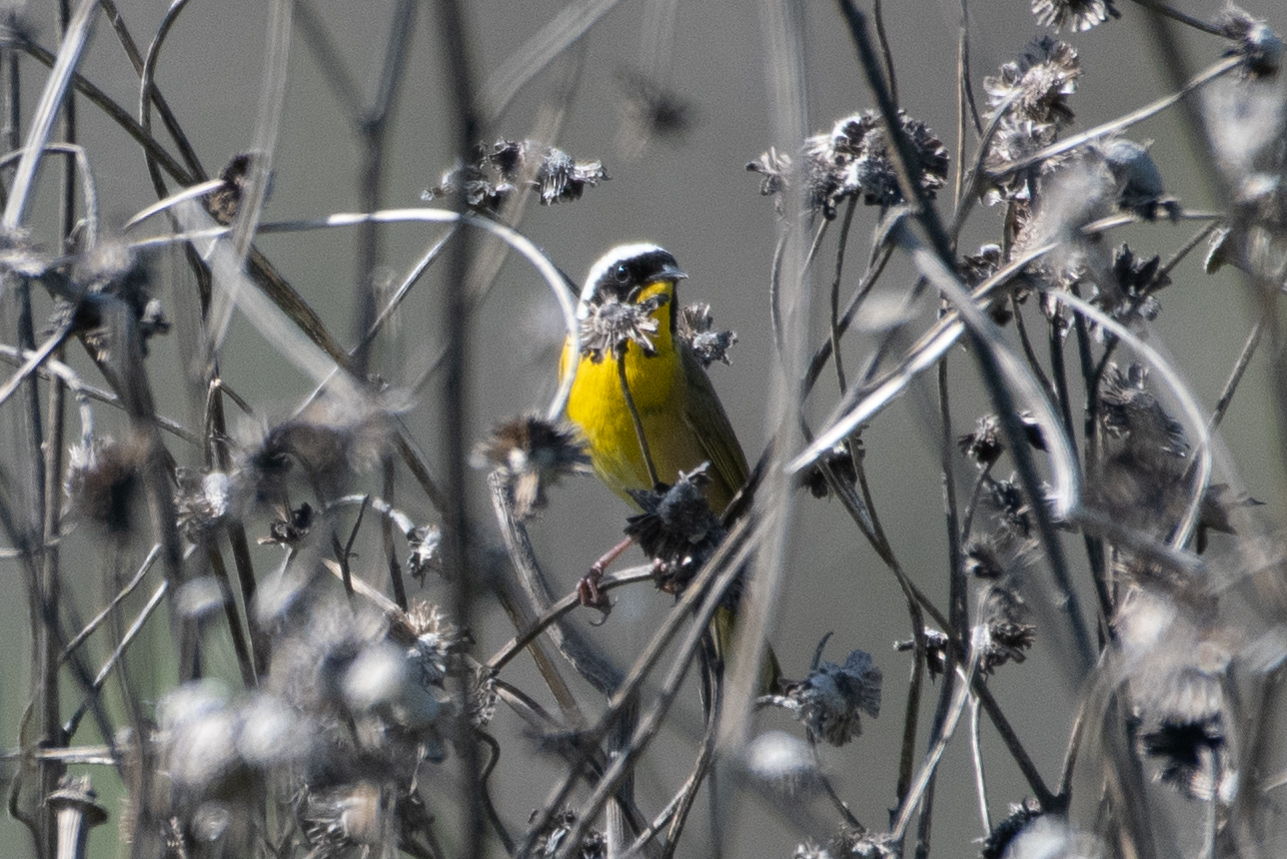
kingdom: Animalia
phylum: Chordata
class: Aves
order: Passeriformes
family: Parulidae
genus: Geothlypis
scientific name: Geothlypis trichas
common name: Common yellowthroat
